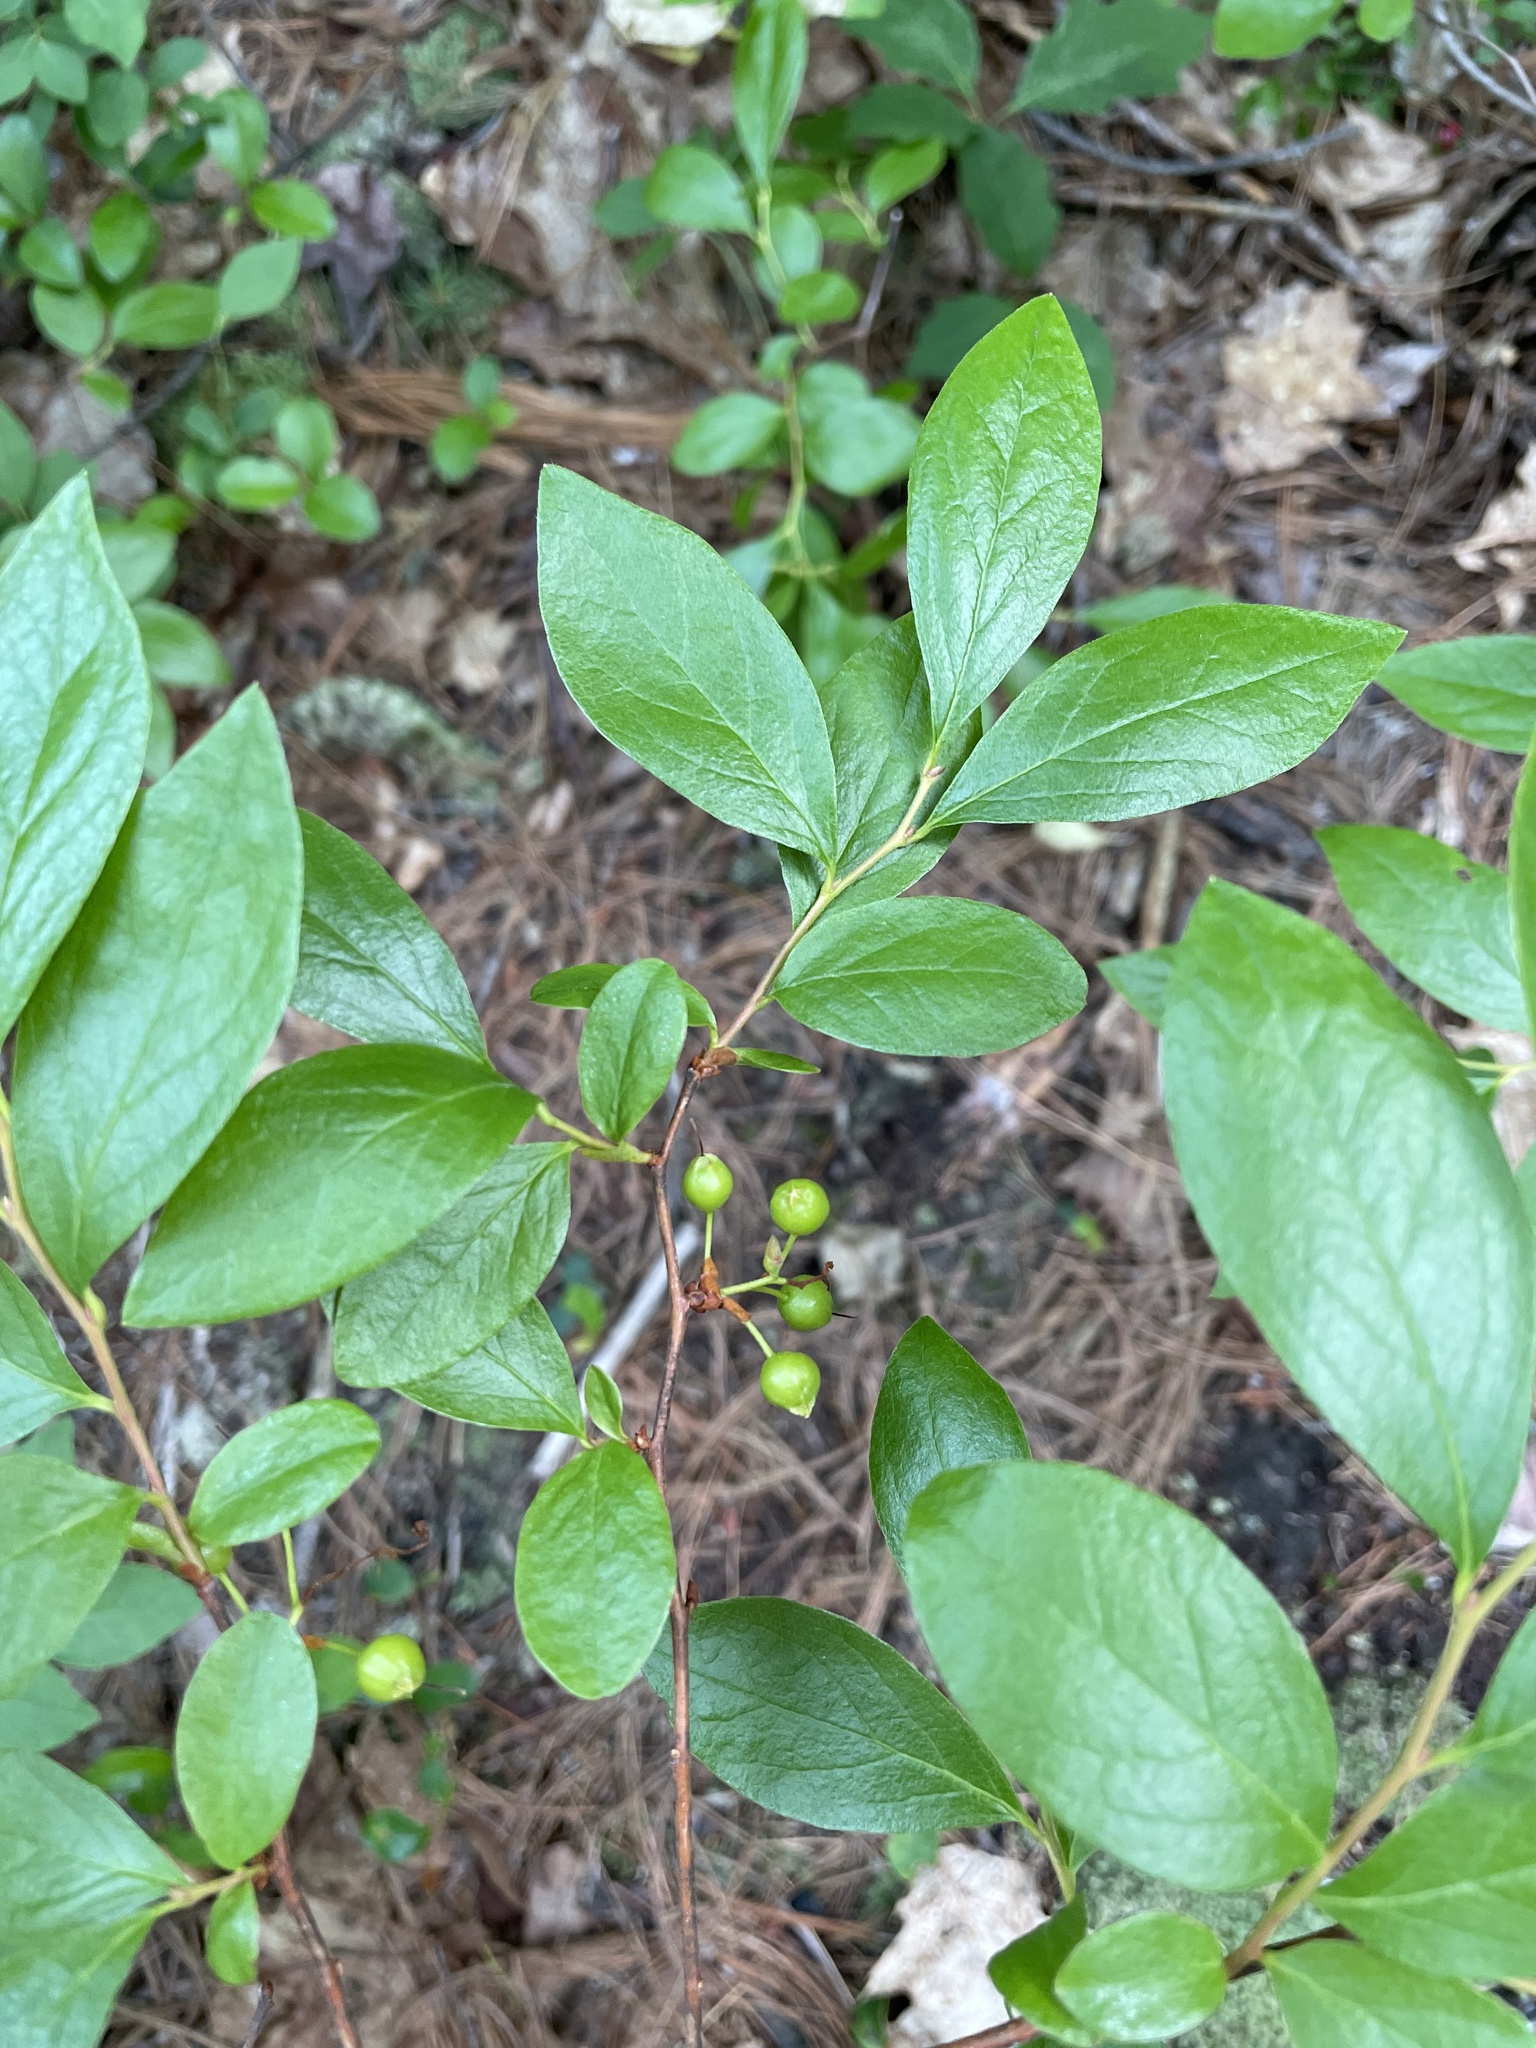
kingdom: Plantae
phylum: Tracheophyta
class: Magnoliopsida
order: Ericales
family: Ericaceae
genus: Gaylussacia
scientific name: Gaylussacia baccata
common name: Black huckleberry
